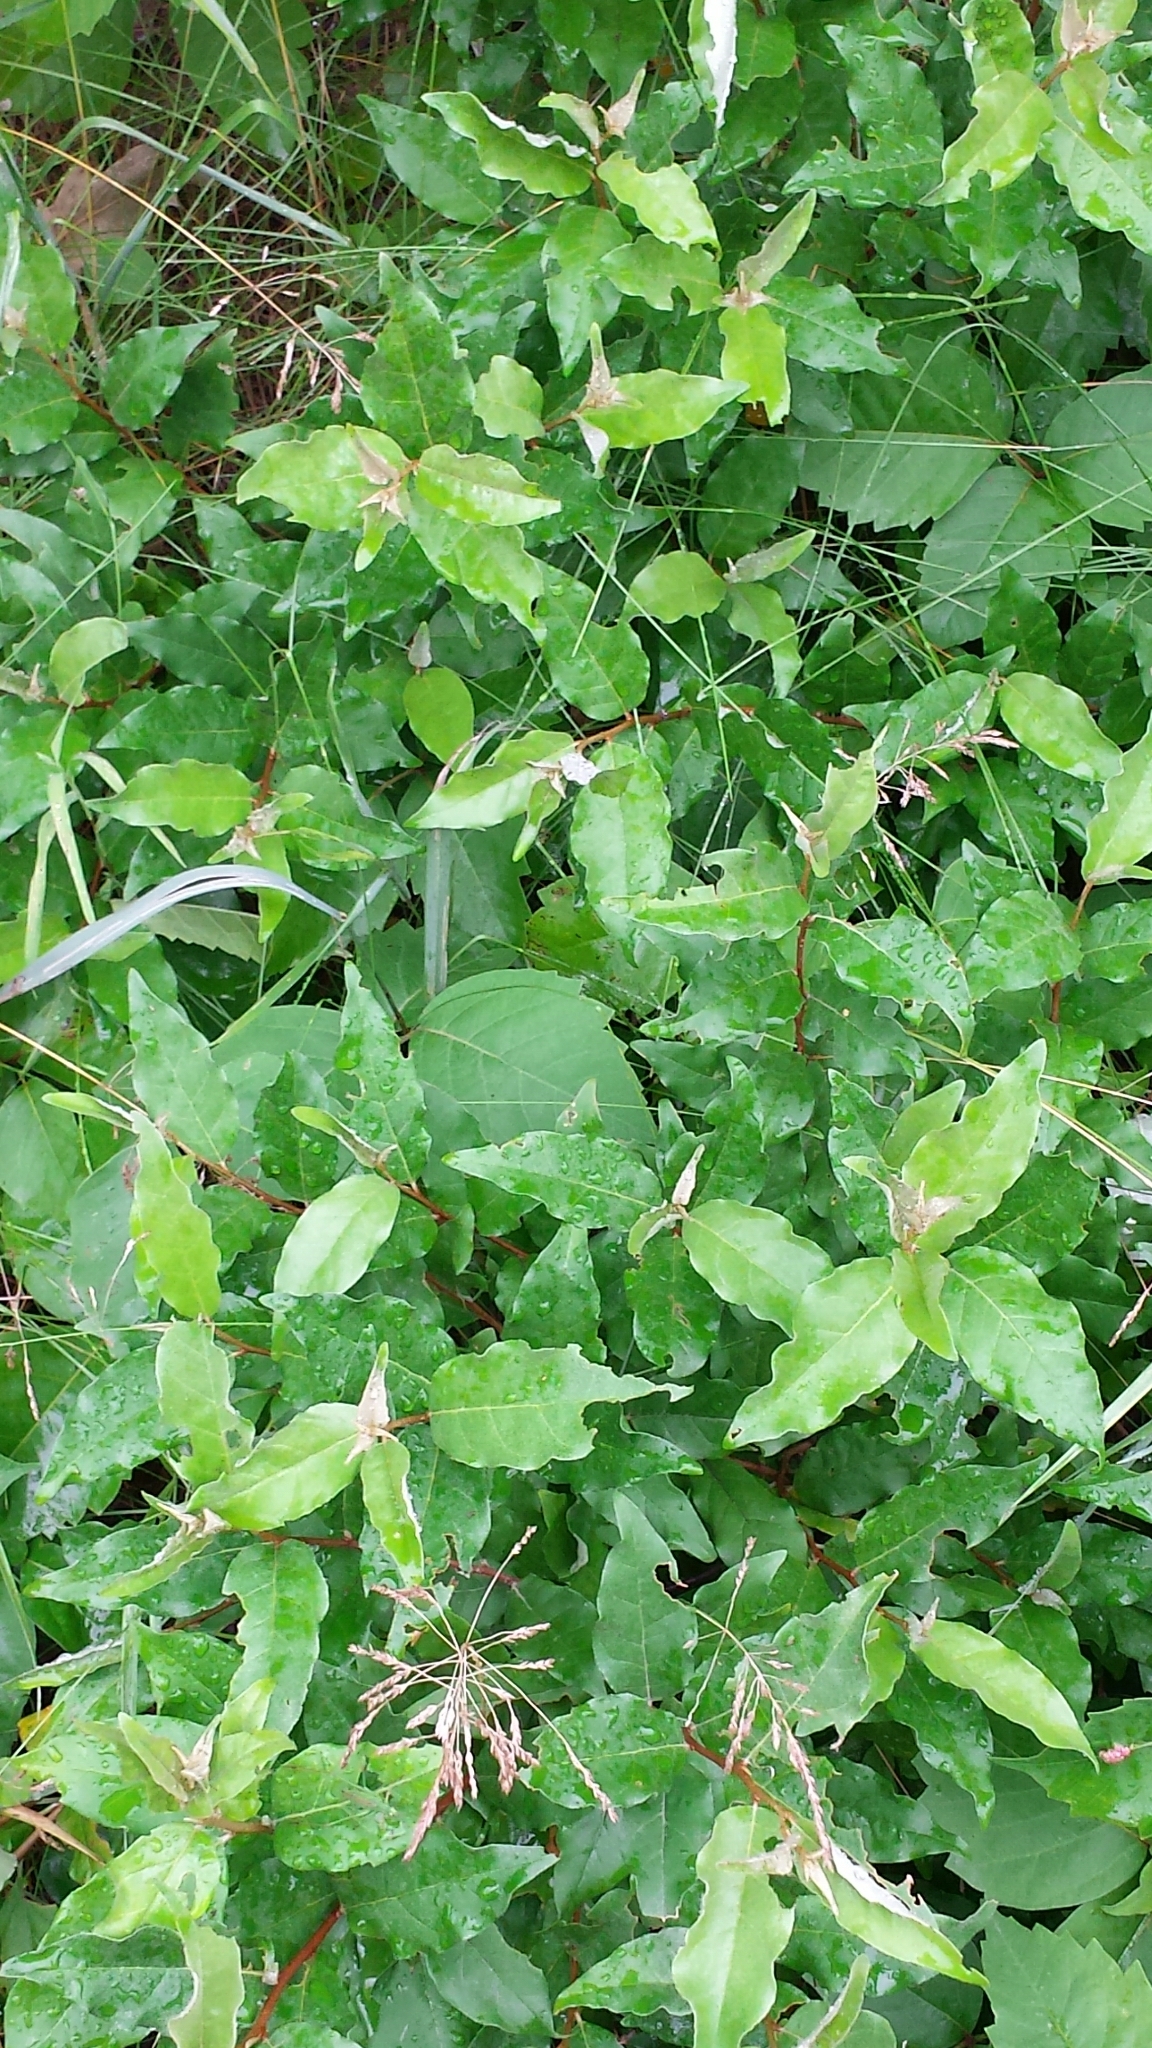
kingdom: Plantae
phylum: Tracheophyta
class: Magnoliopsida
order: Rosales
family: Elaeagnaceae
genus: Elaeagnus
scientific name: Elaeagnus umbellata
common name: Autumn olive
